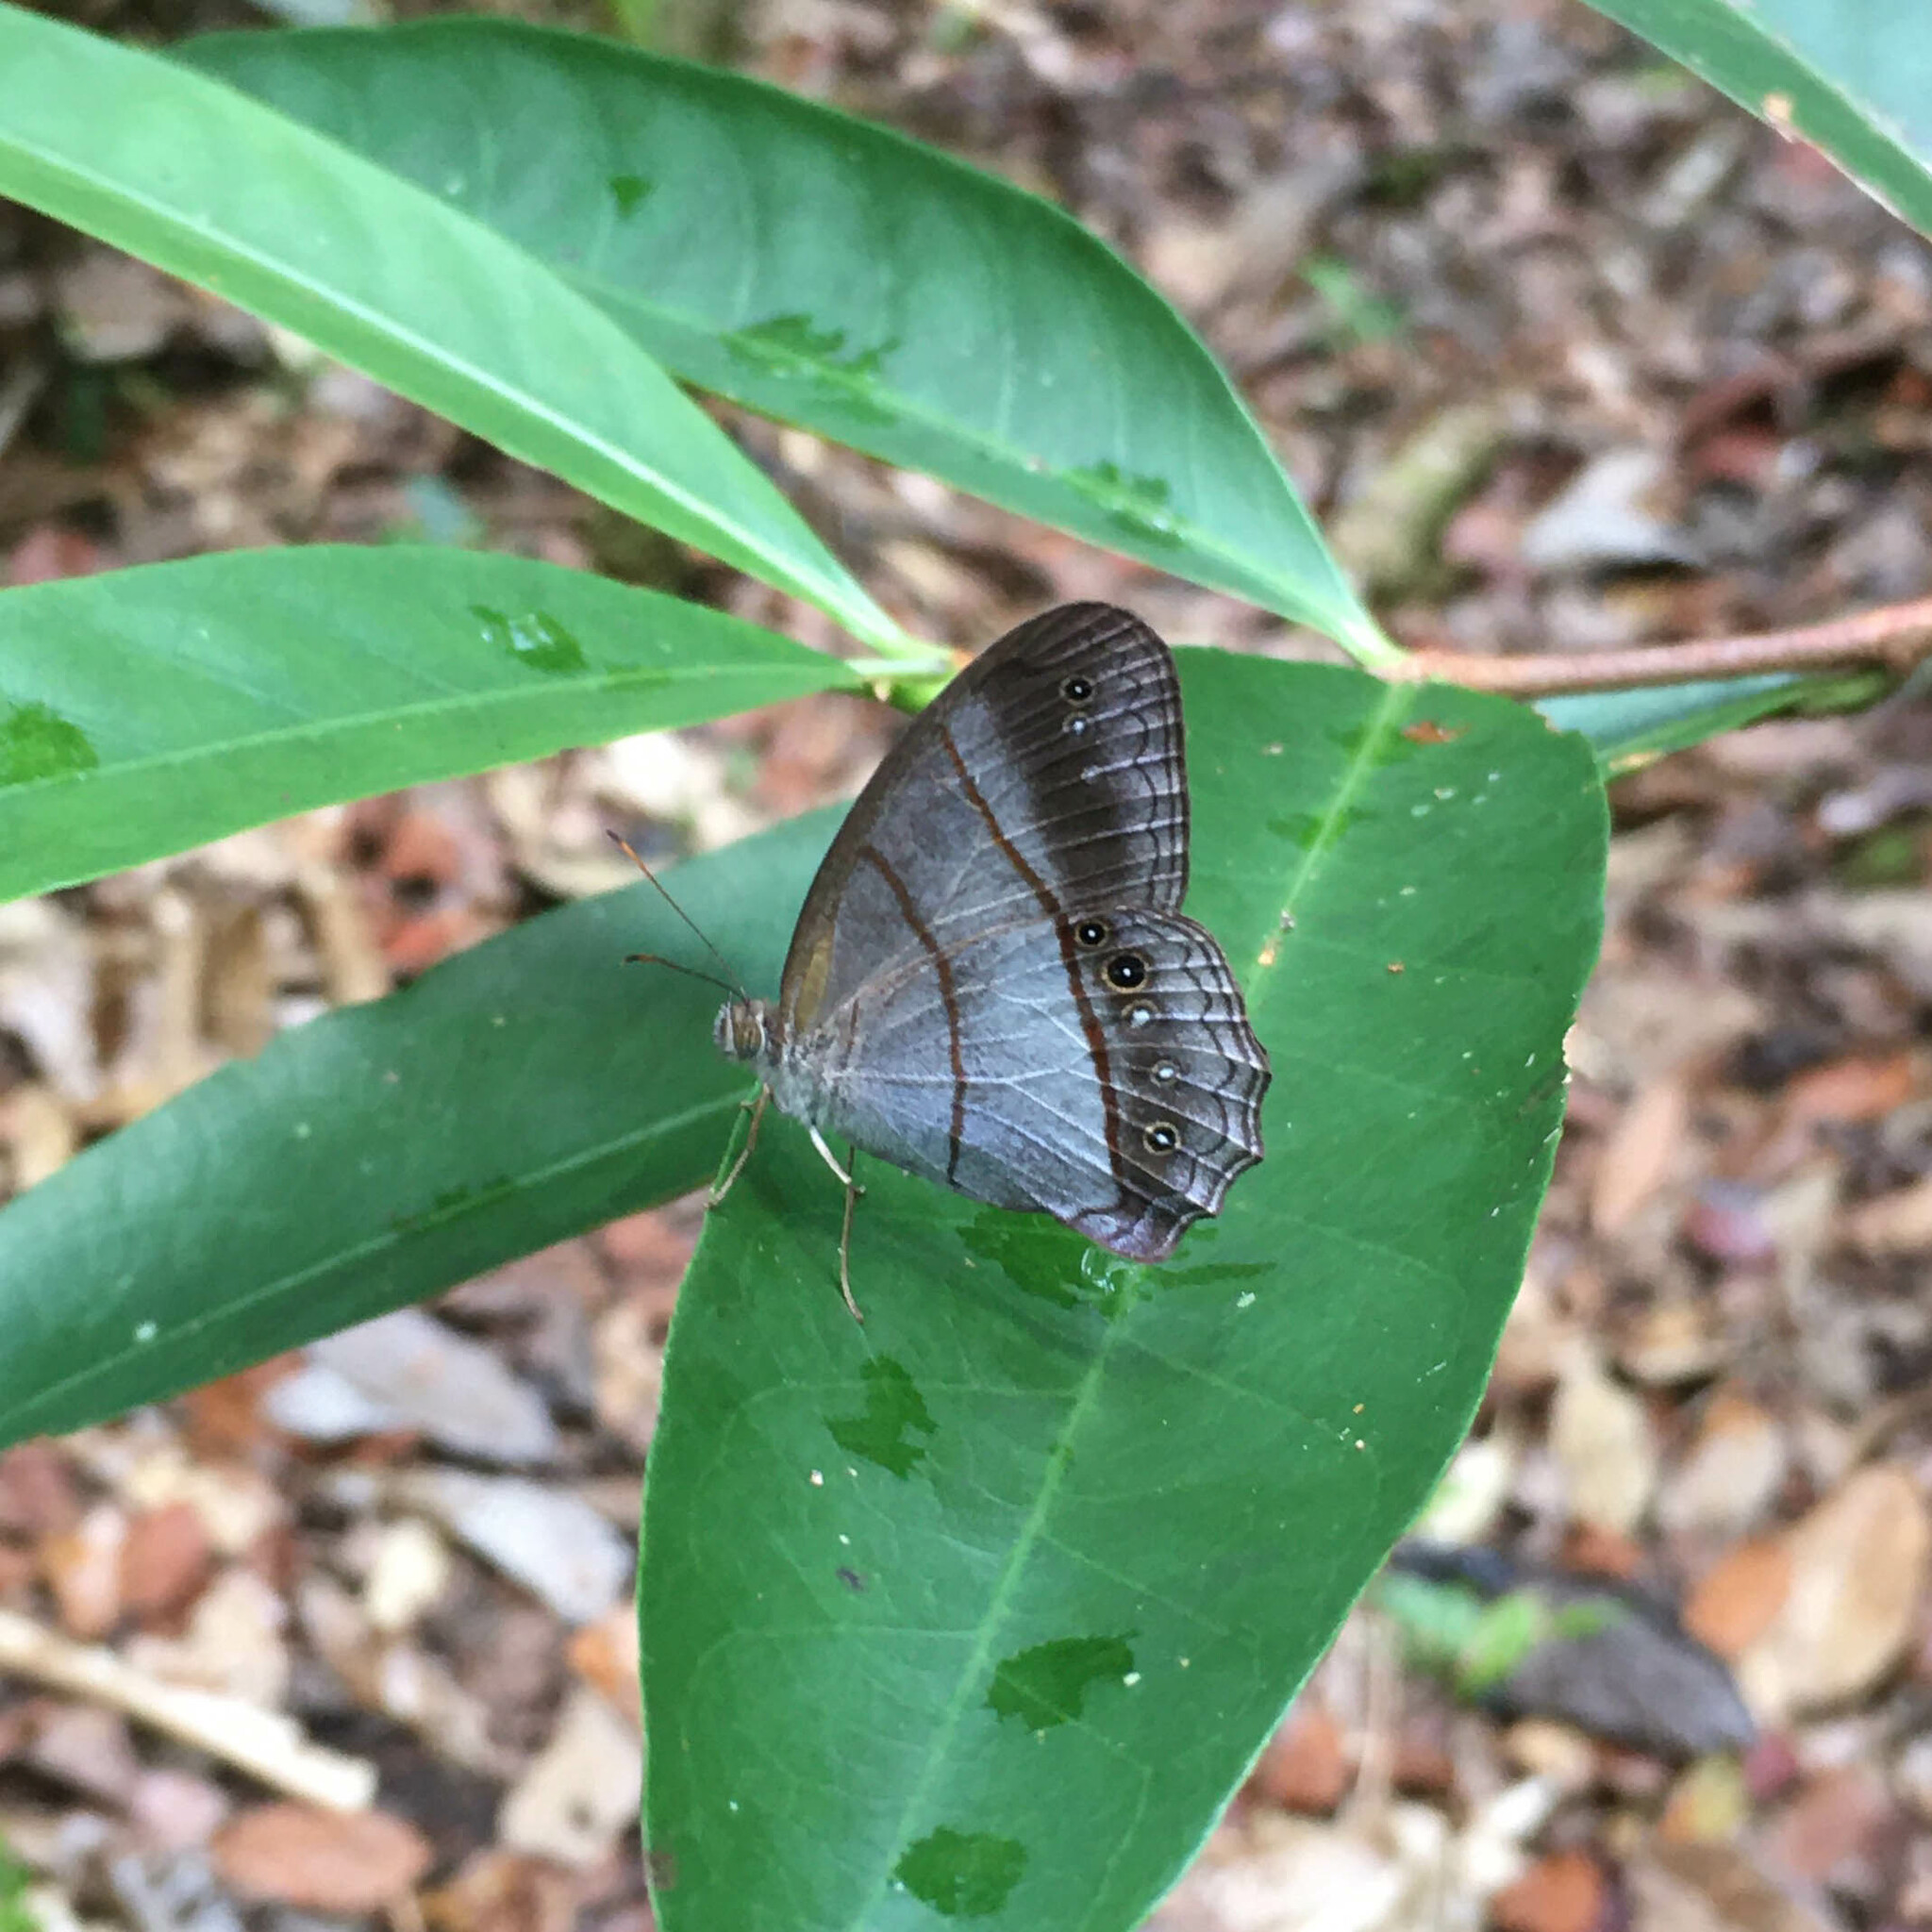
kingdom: Animalia
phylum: Arthropoda
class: Insecta
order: Lepidoptera
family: Nymphalidae
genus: Archeuptychia
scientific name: Archeuptychia cluena
